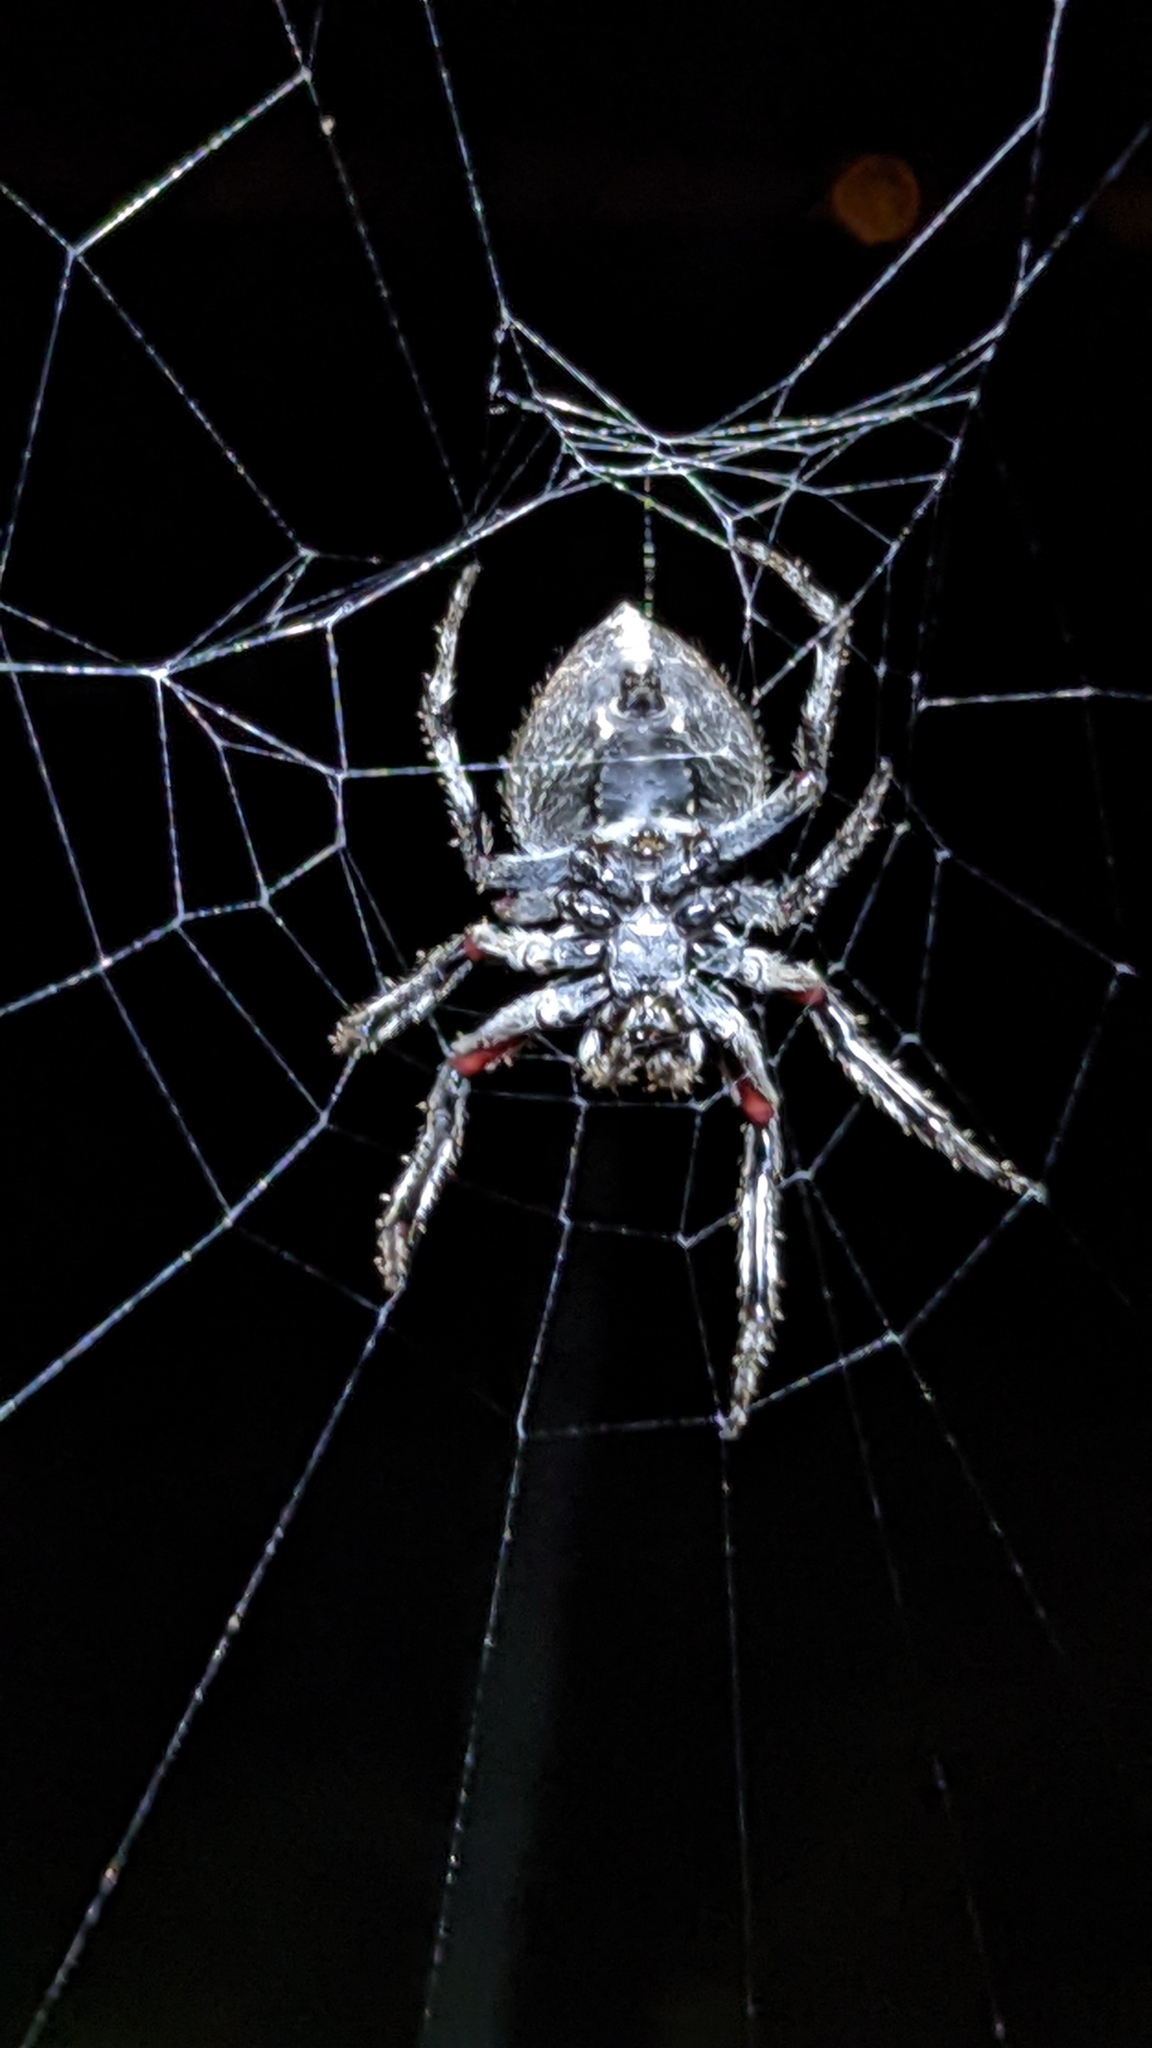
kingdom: Animalia
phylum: Arthropoda
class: Arachnida
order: Araneae
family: Araneidae
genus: Eriophora
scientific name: Eriophora pustulosa
